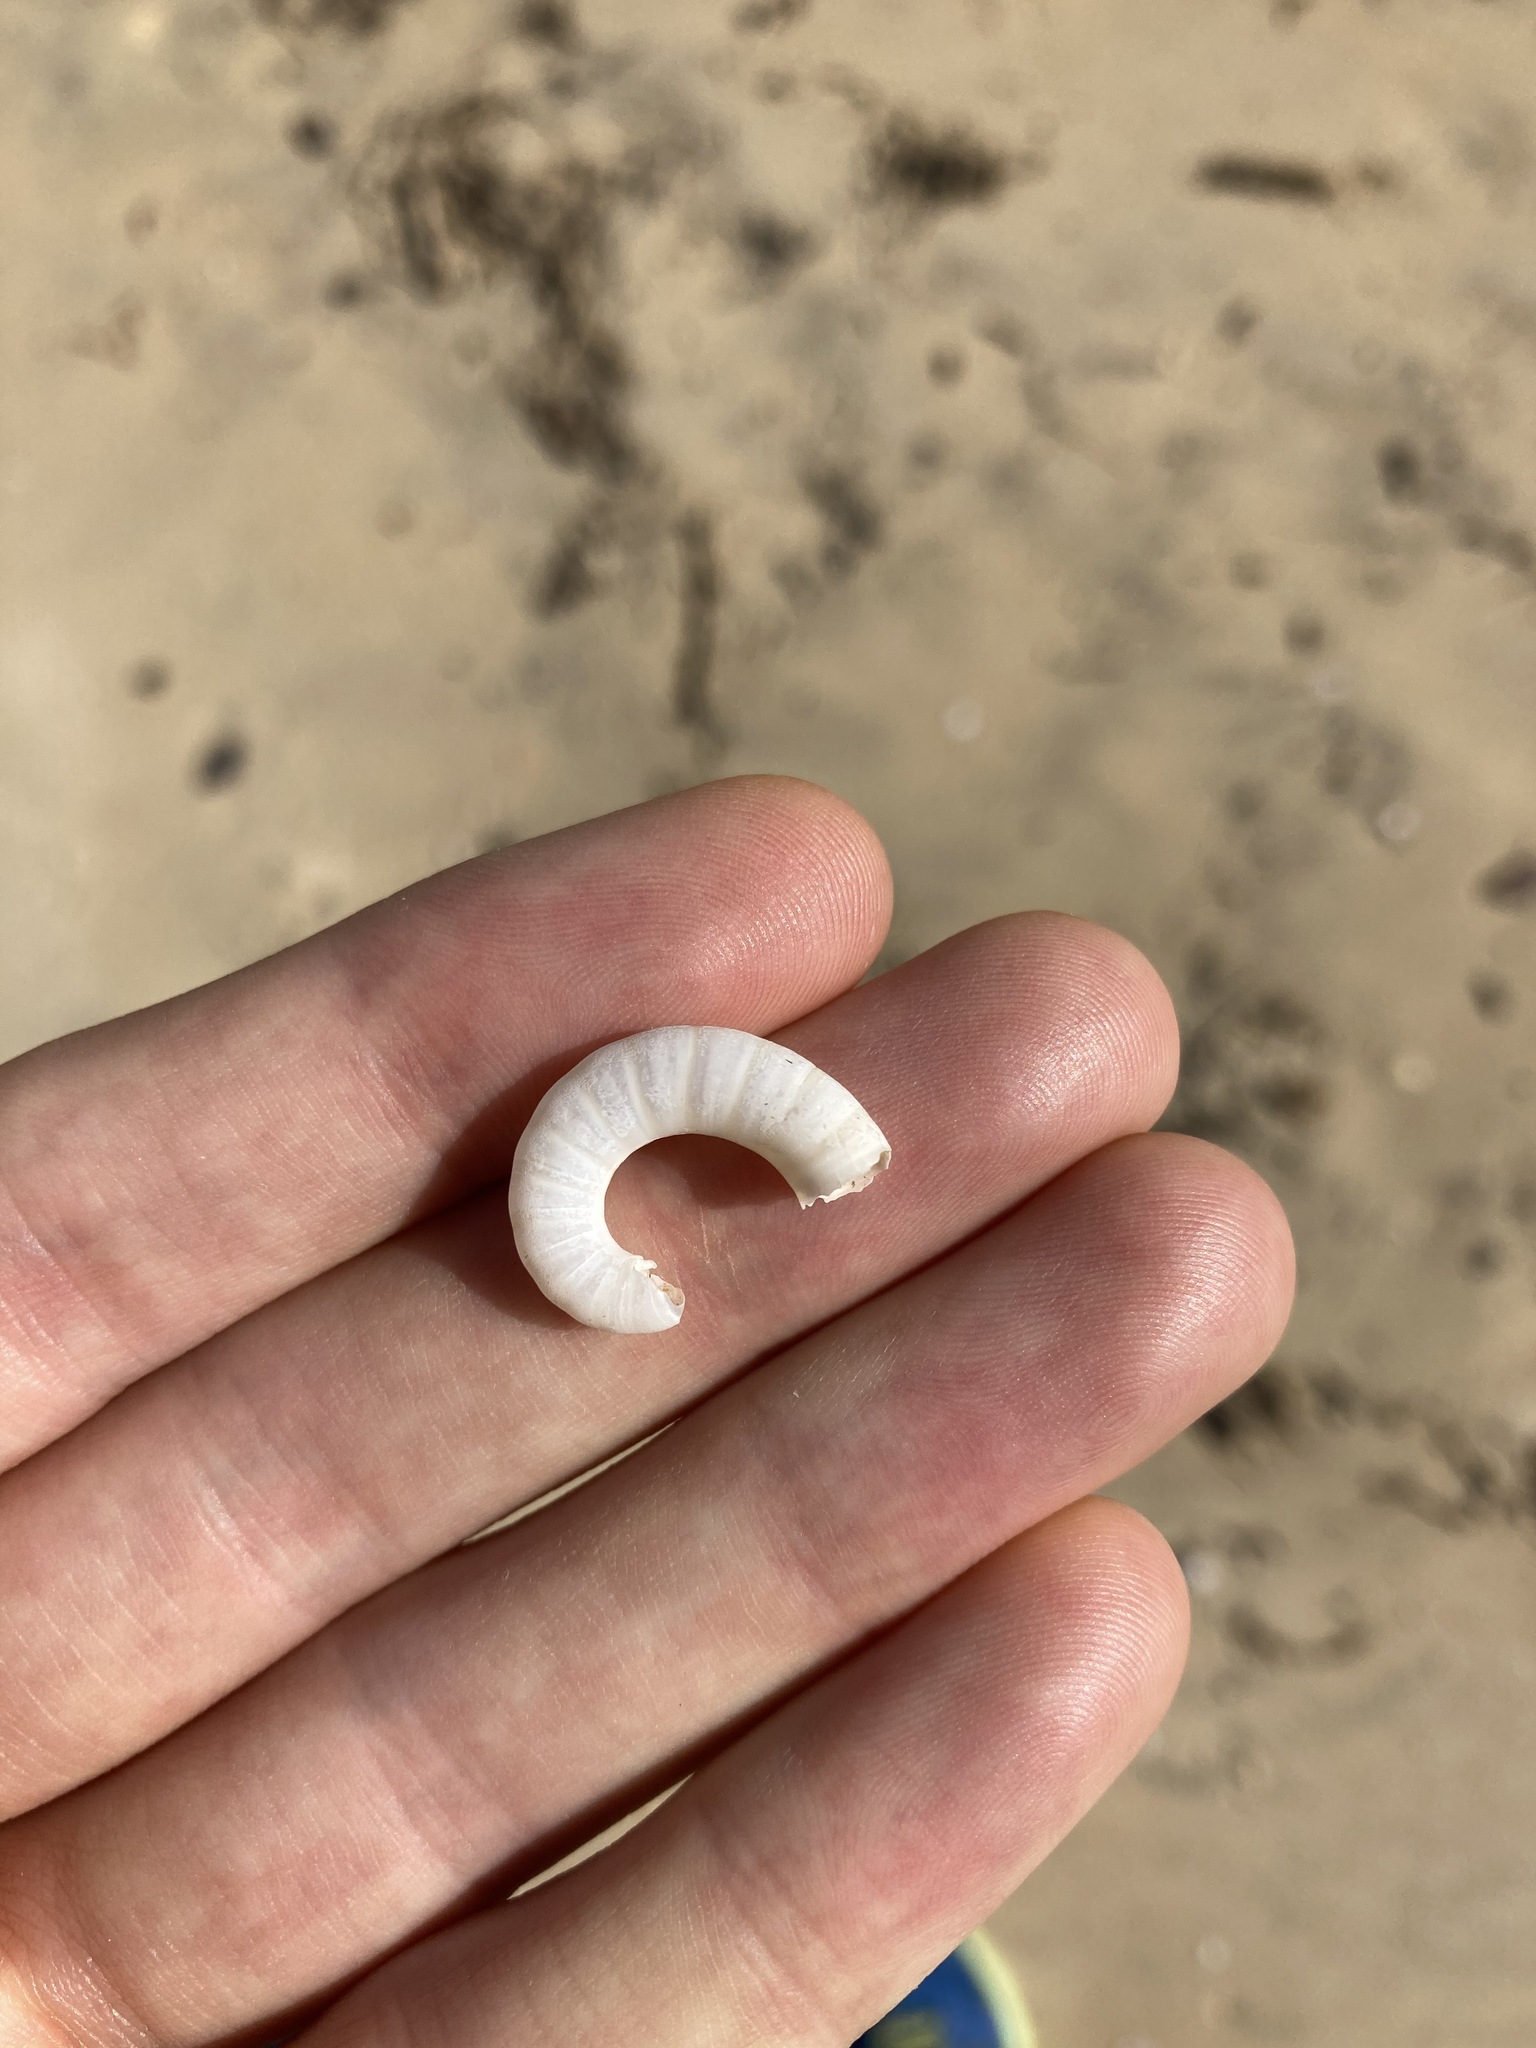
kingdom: Animalia
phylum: Mollusca
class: Cephalopoda
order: Spirulida
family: Spirulidae
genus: Spirula
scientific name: Spirula spirula
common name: Ram's horn squid
